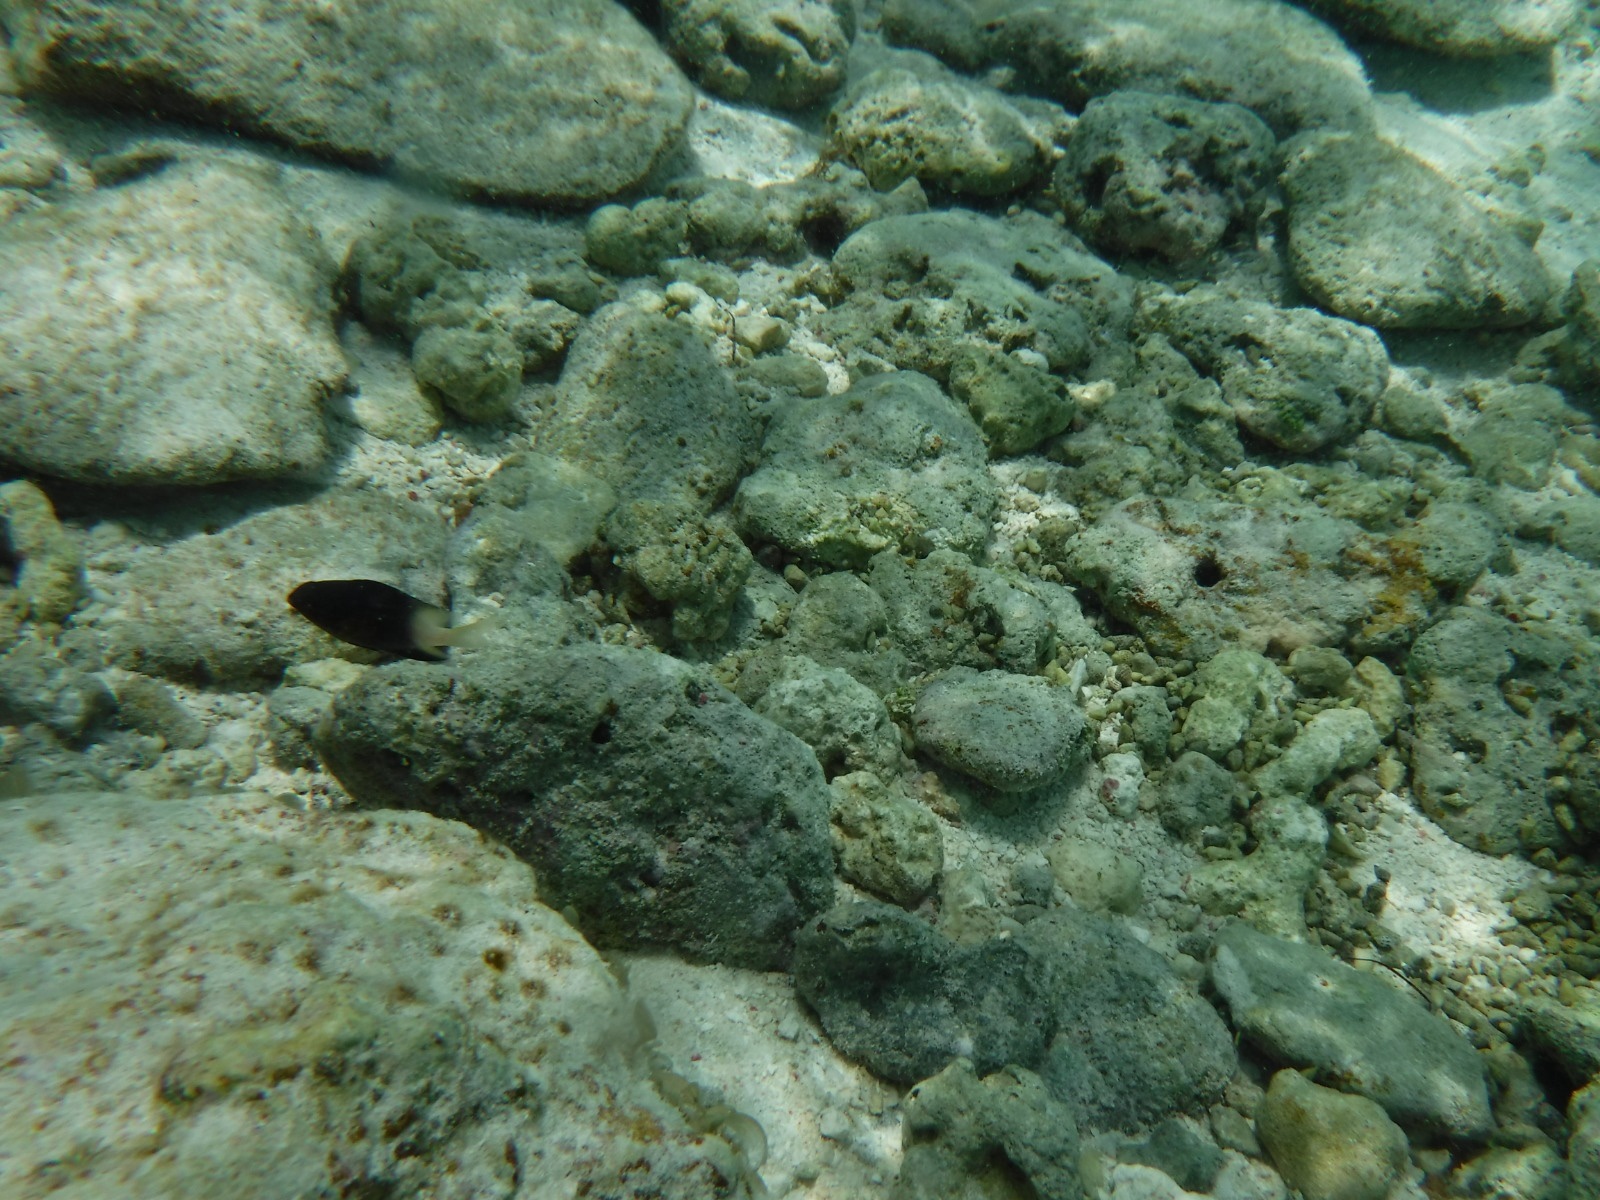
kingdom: Animalia
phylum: Chordata
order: Perciformes
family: Pomacentridae
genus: Stegastes
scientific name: Stegastes partitus
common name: Bicolor damselfish
